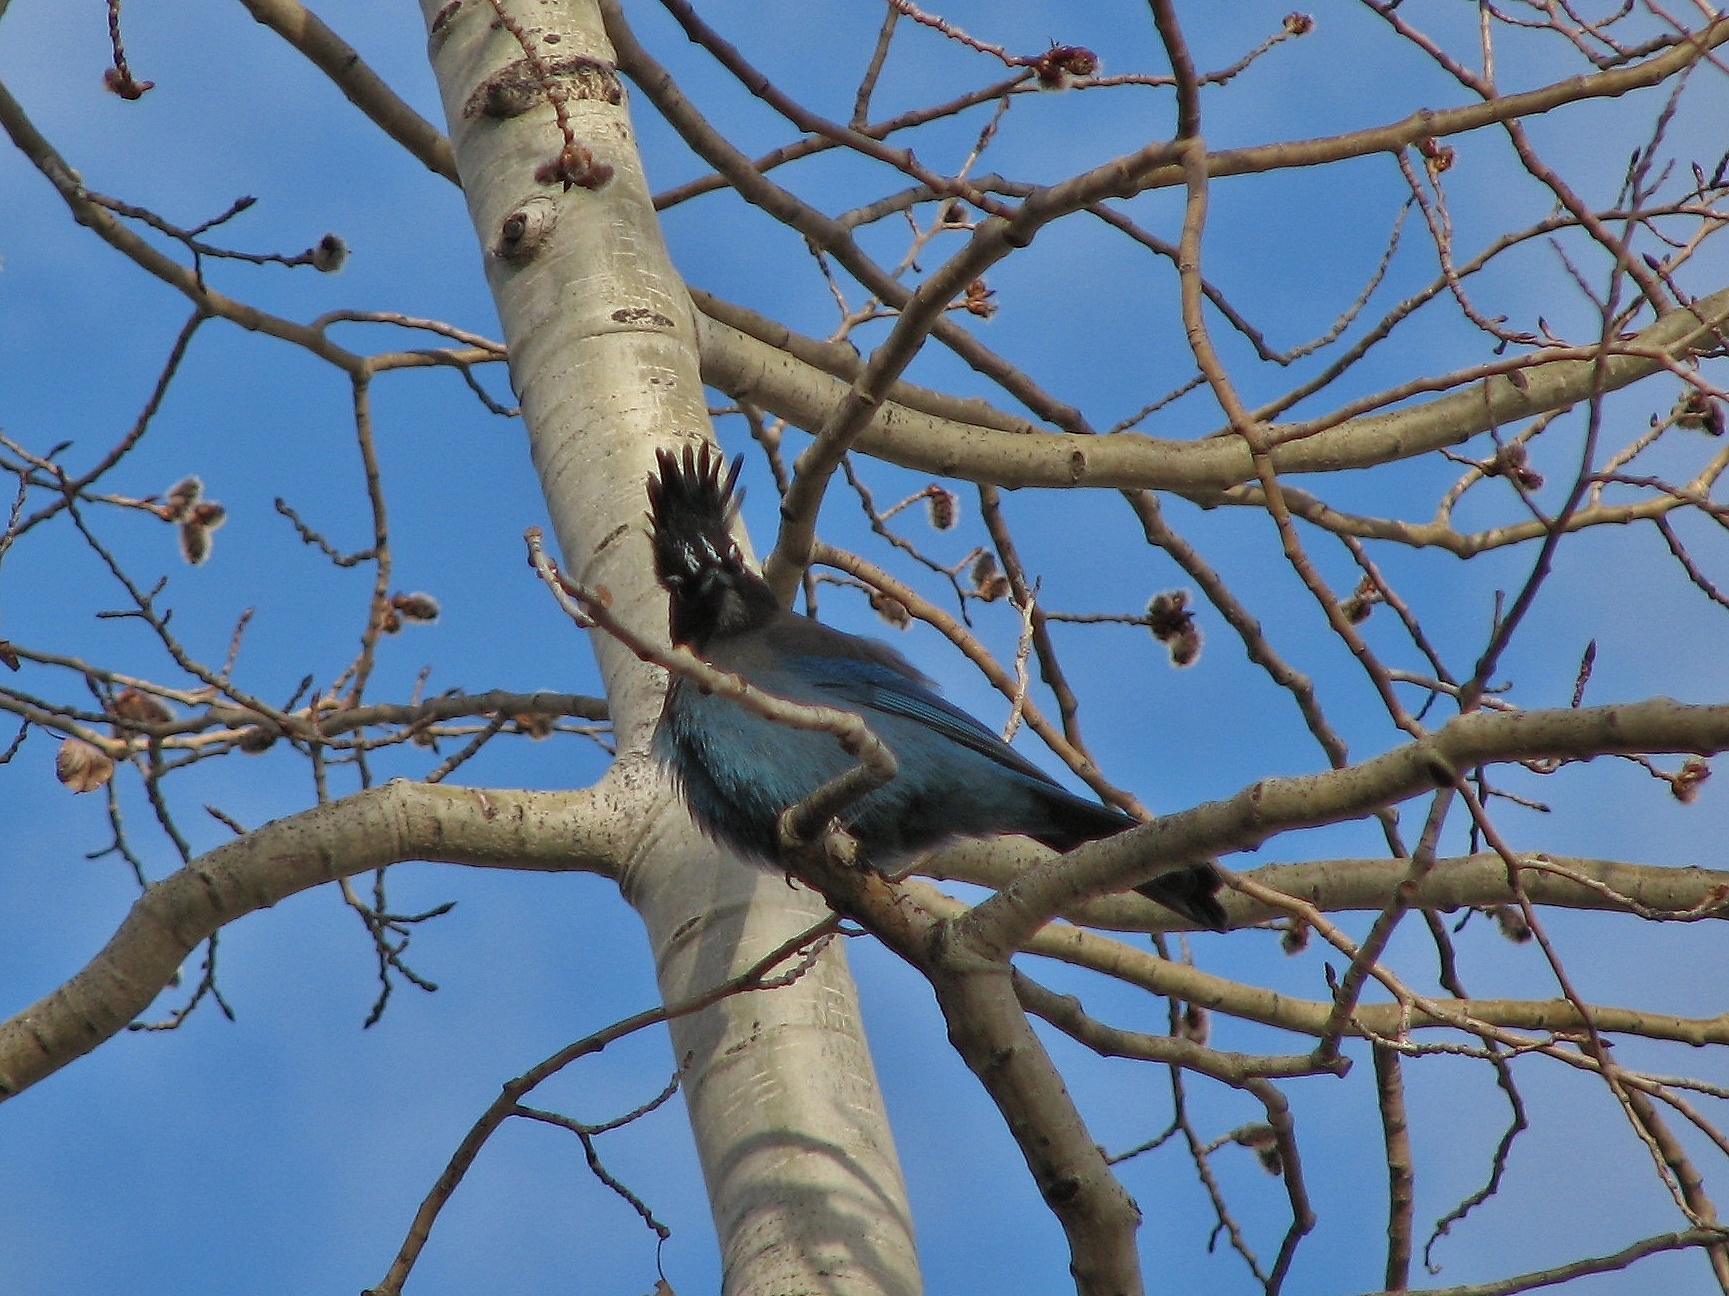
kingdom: Animalia
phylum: Chordata
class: Aves
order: Passeriformes
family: Corvidae
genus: Cyanocitta
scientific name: Cyanocitta stelleri
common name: Steller's jay
